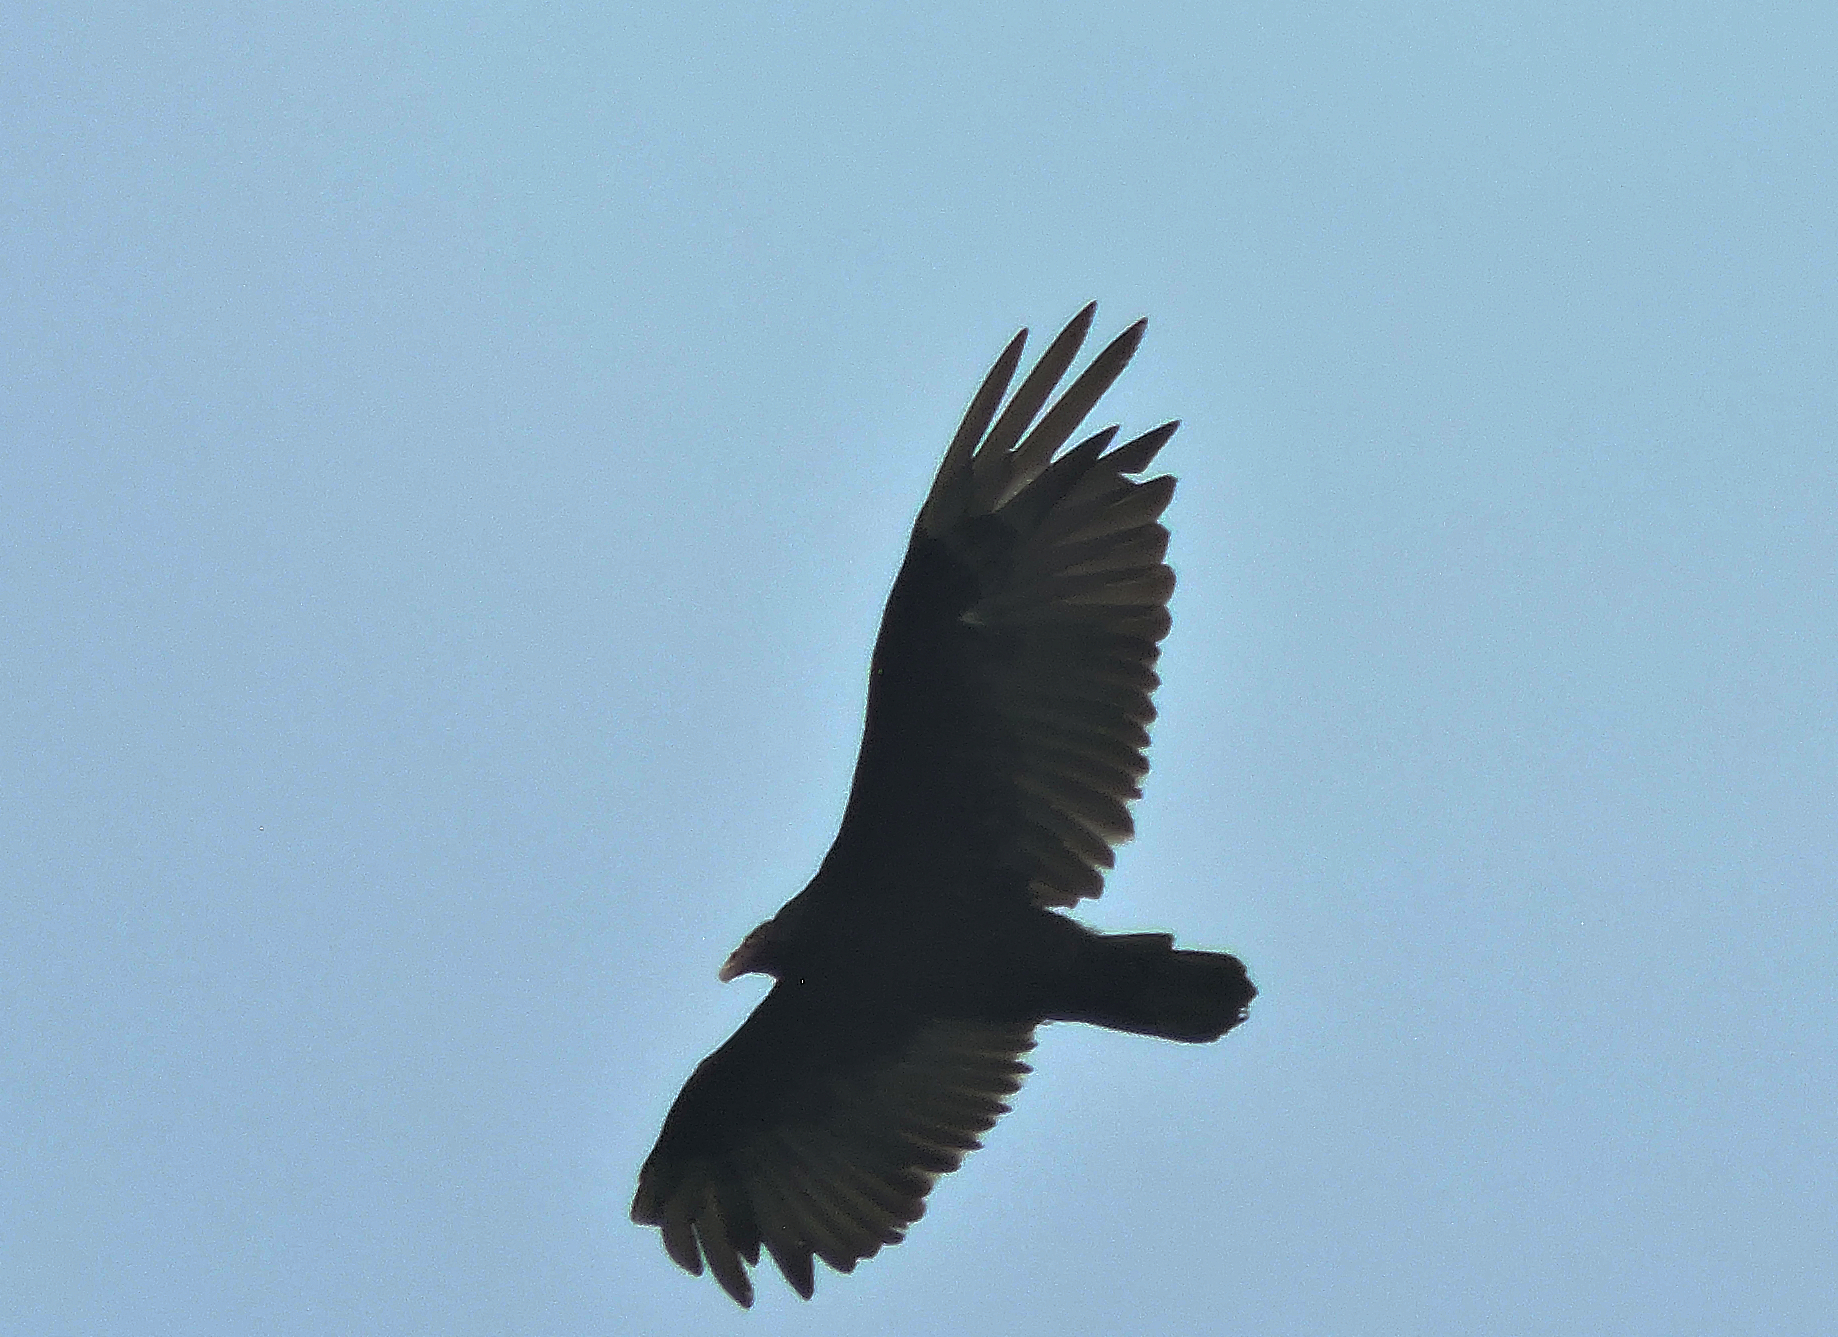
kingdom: Animalia
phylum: Chordata
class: Aves
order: Accipitriformes
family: Cathartidae
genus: Cathartes
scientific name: Cathartes aura
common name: Turkey vulture
